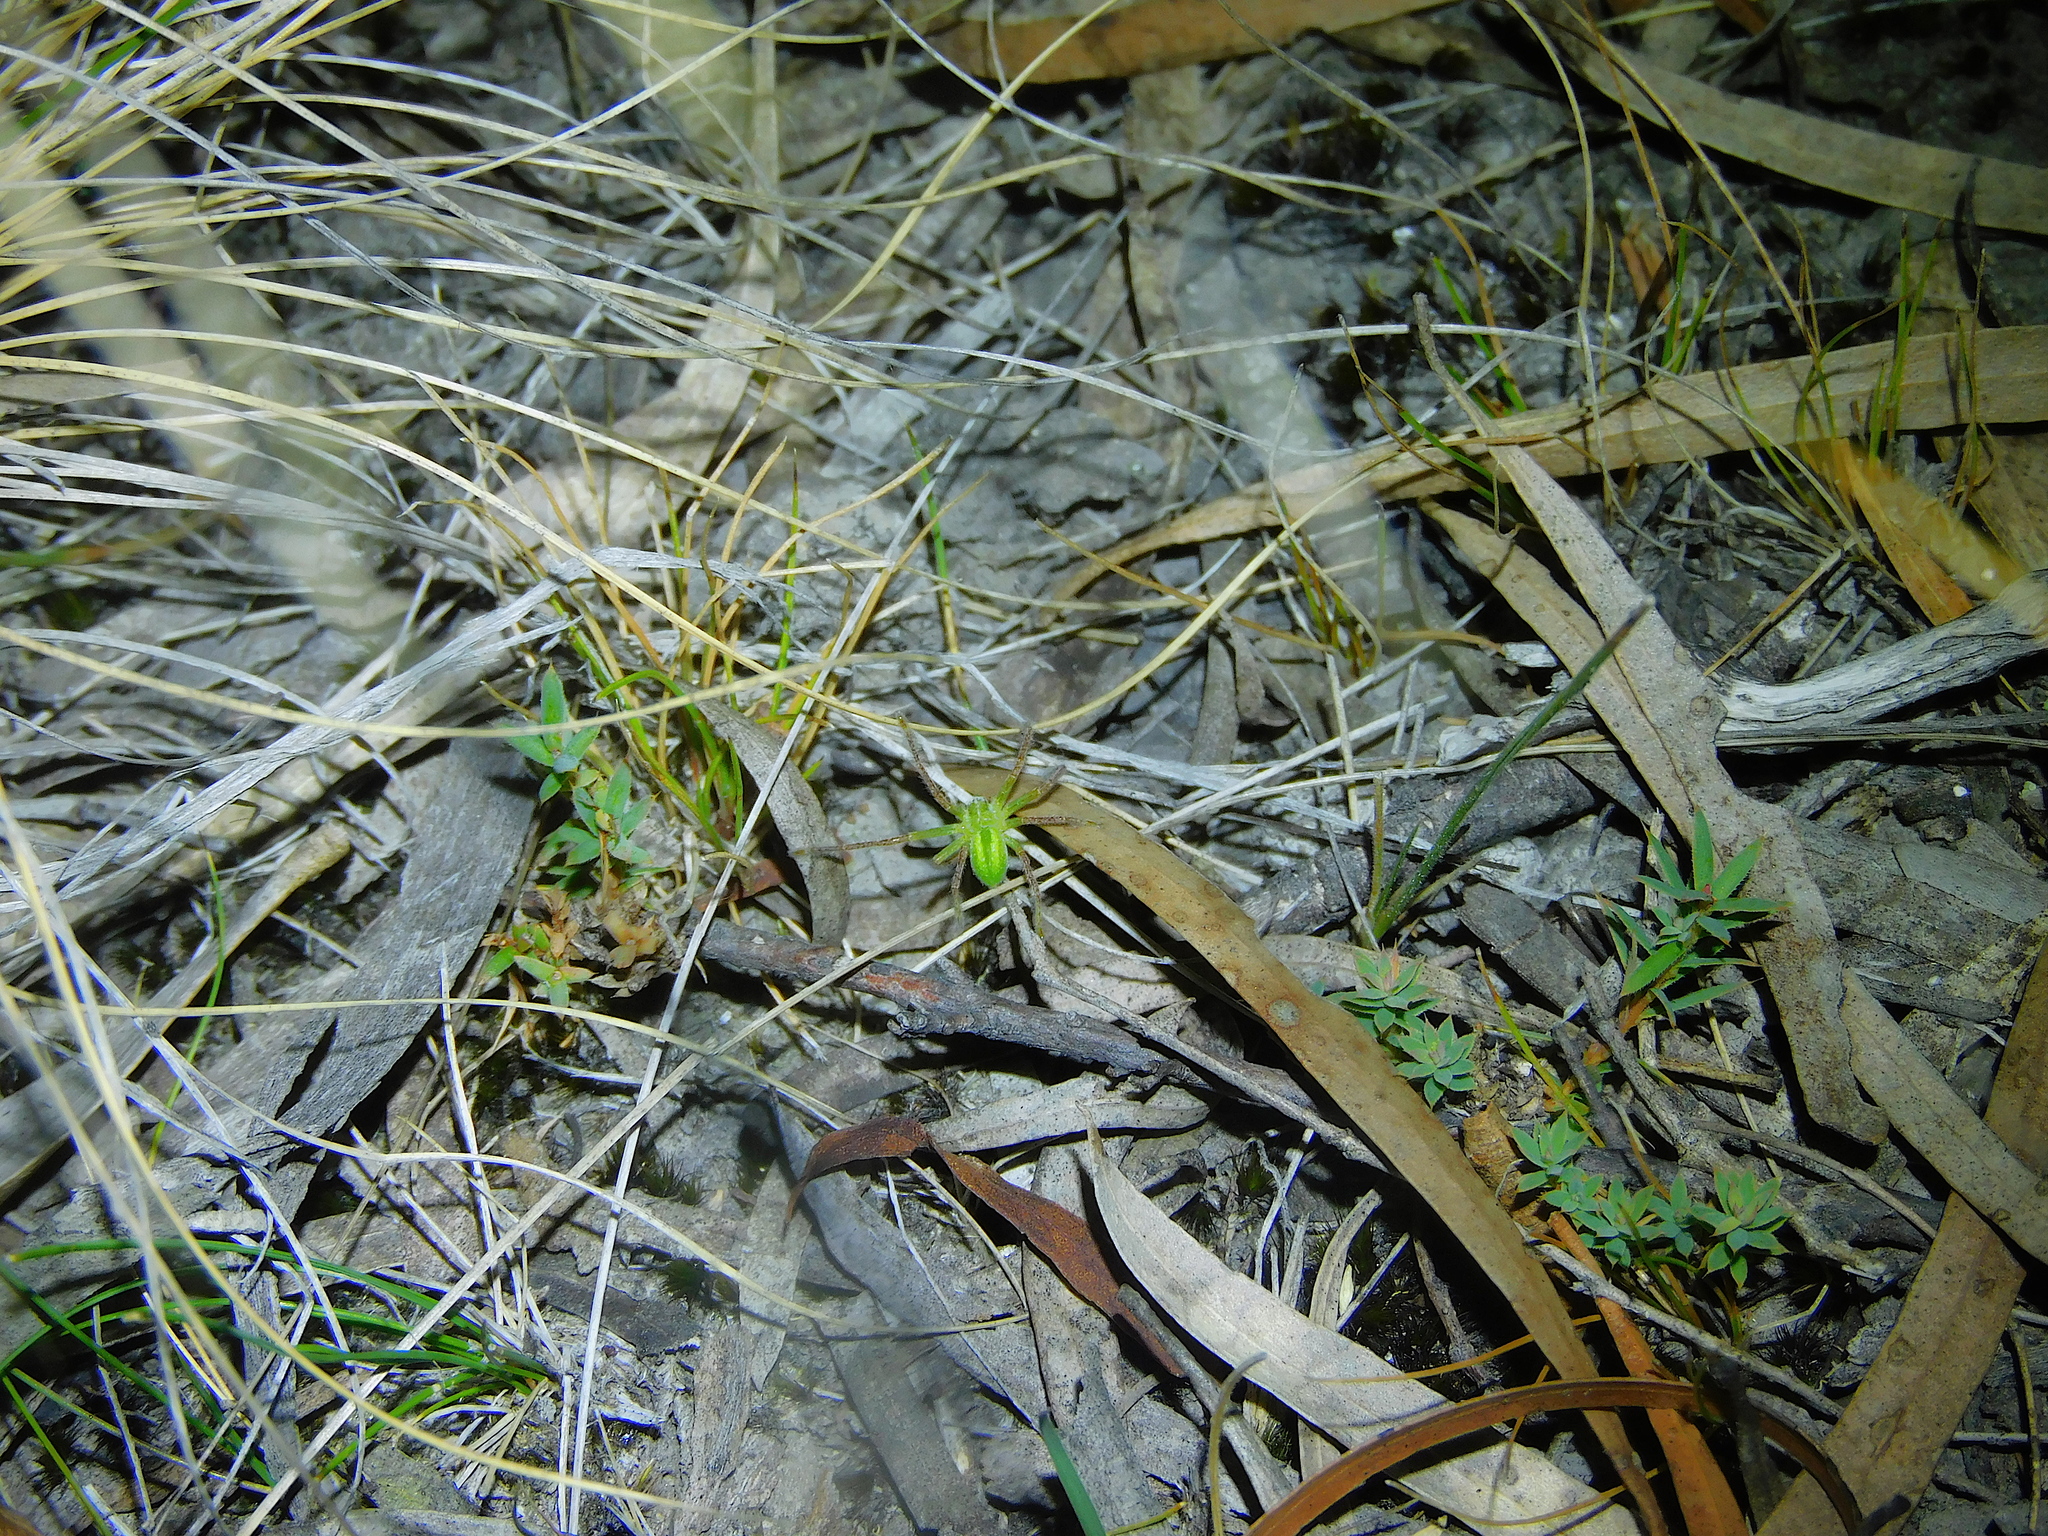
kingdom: Animalia
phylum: Arthropoda
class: Arachnida
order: Araneae
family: Sparassidae
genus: Neosparassus
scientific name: Neosparassus patellatus
